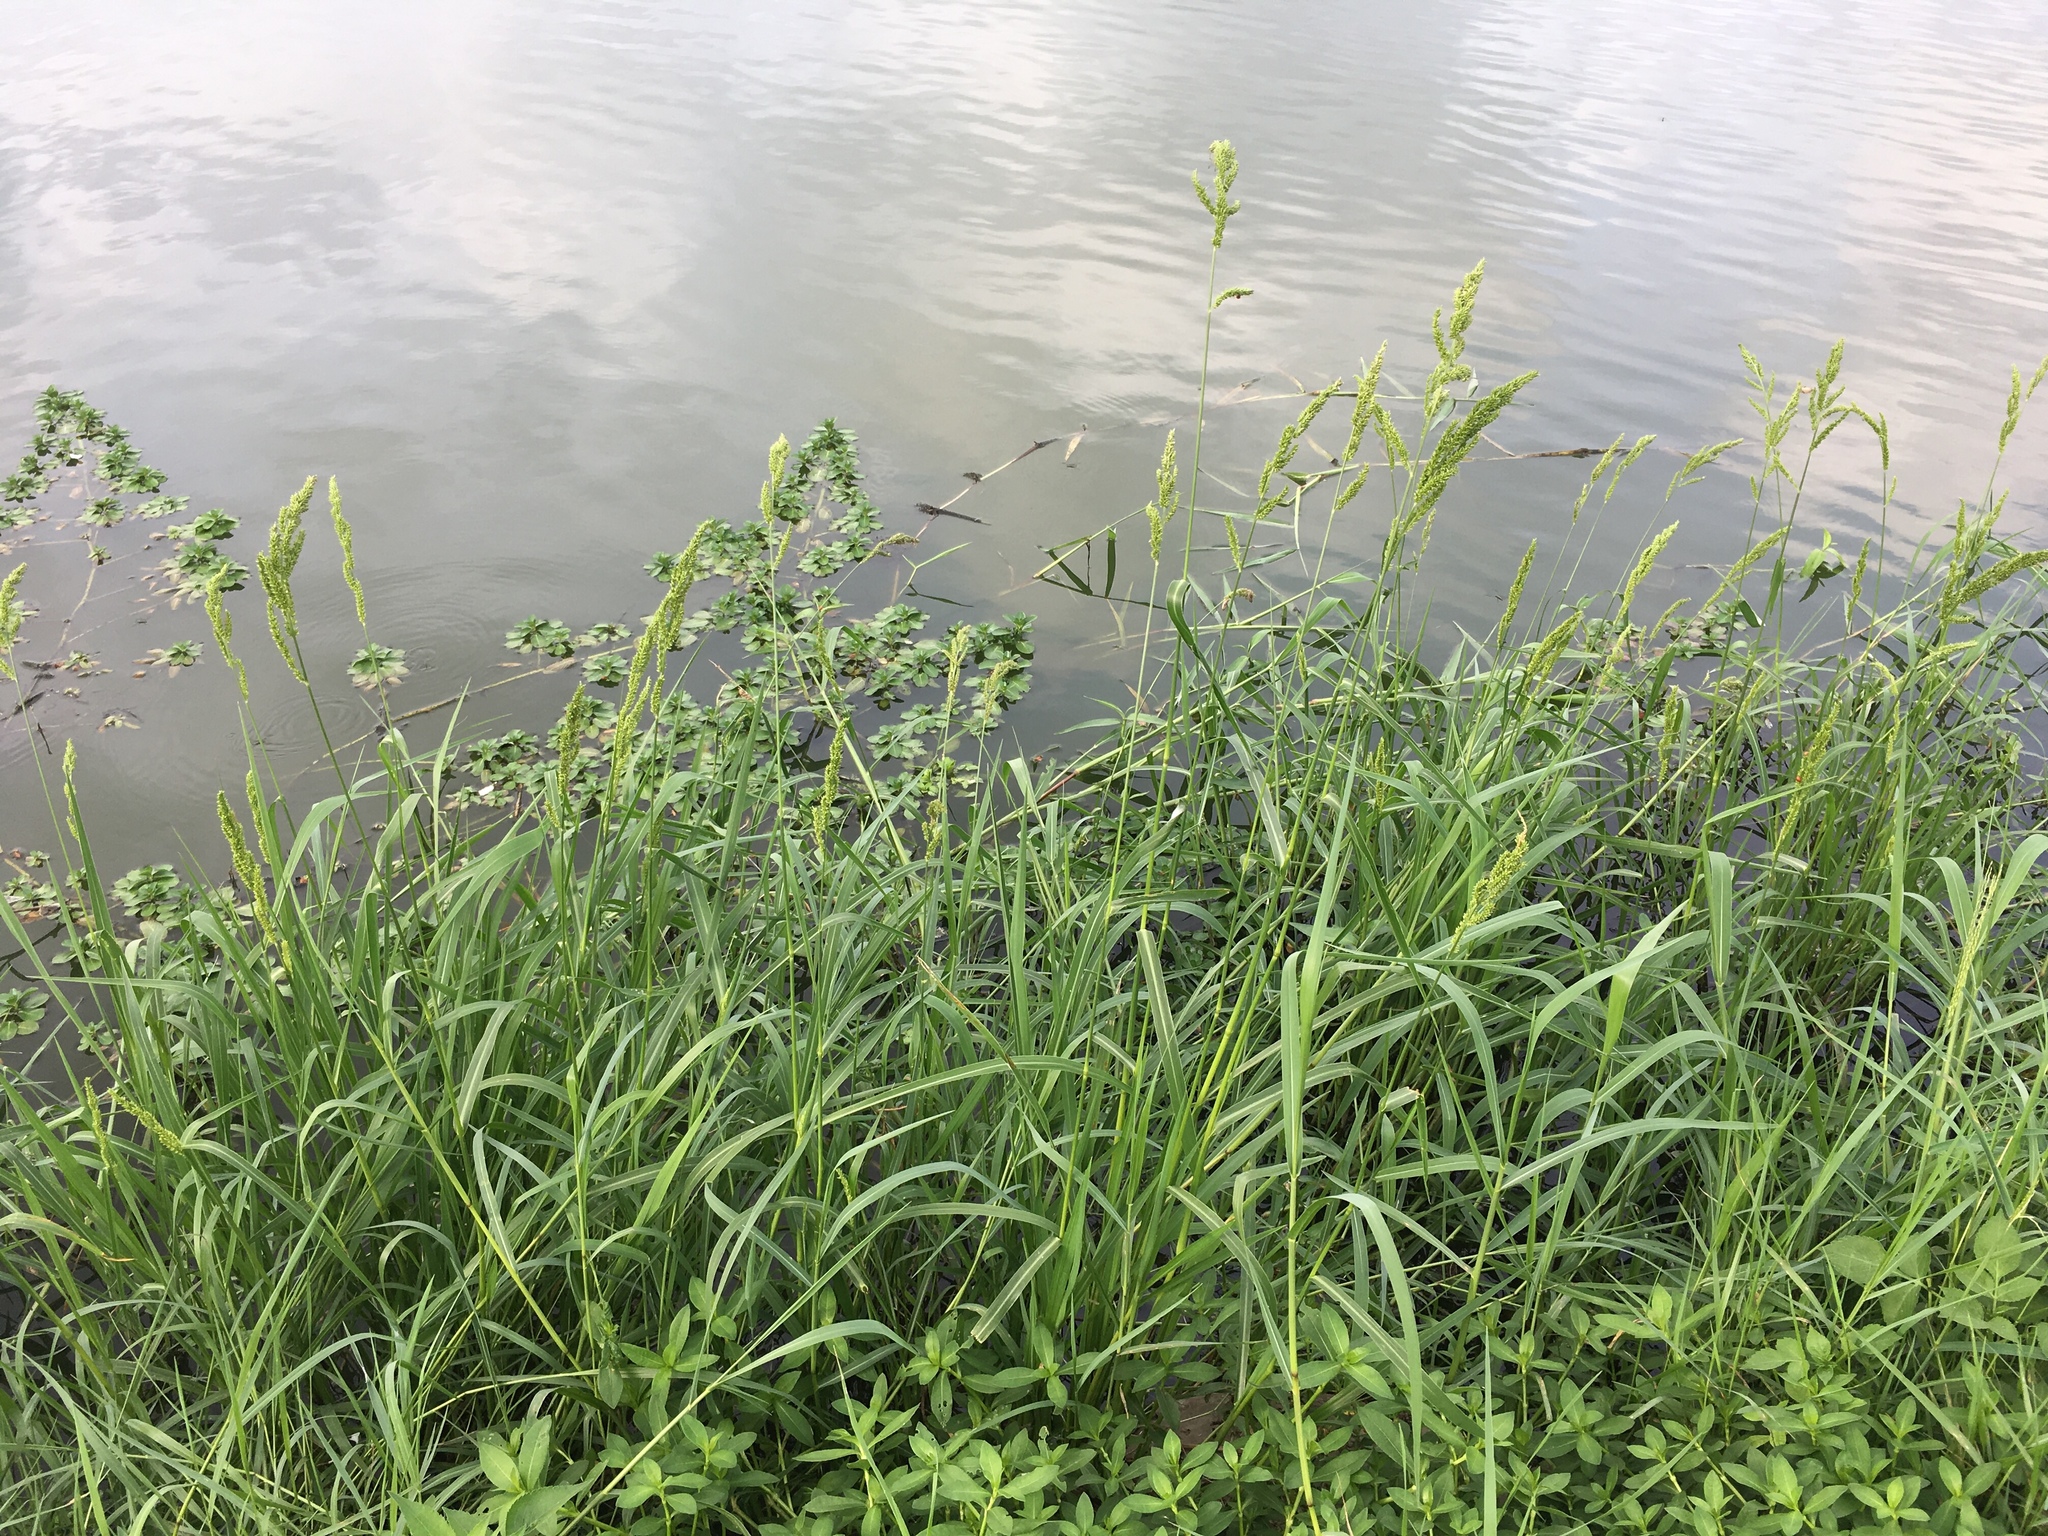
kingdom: Plantae
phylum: Tracheophyta
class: Liliopsida
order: Poales
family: Poaceae
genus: Echinochloa
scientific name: Echinochloa crus-galli
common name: Cockspur
